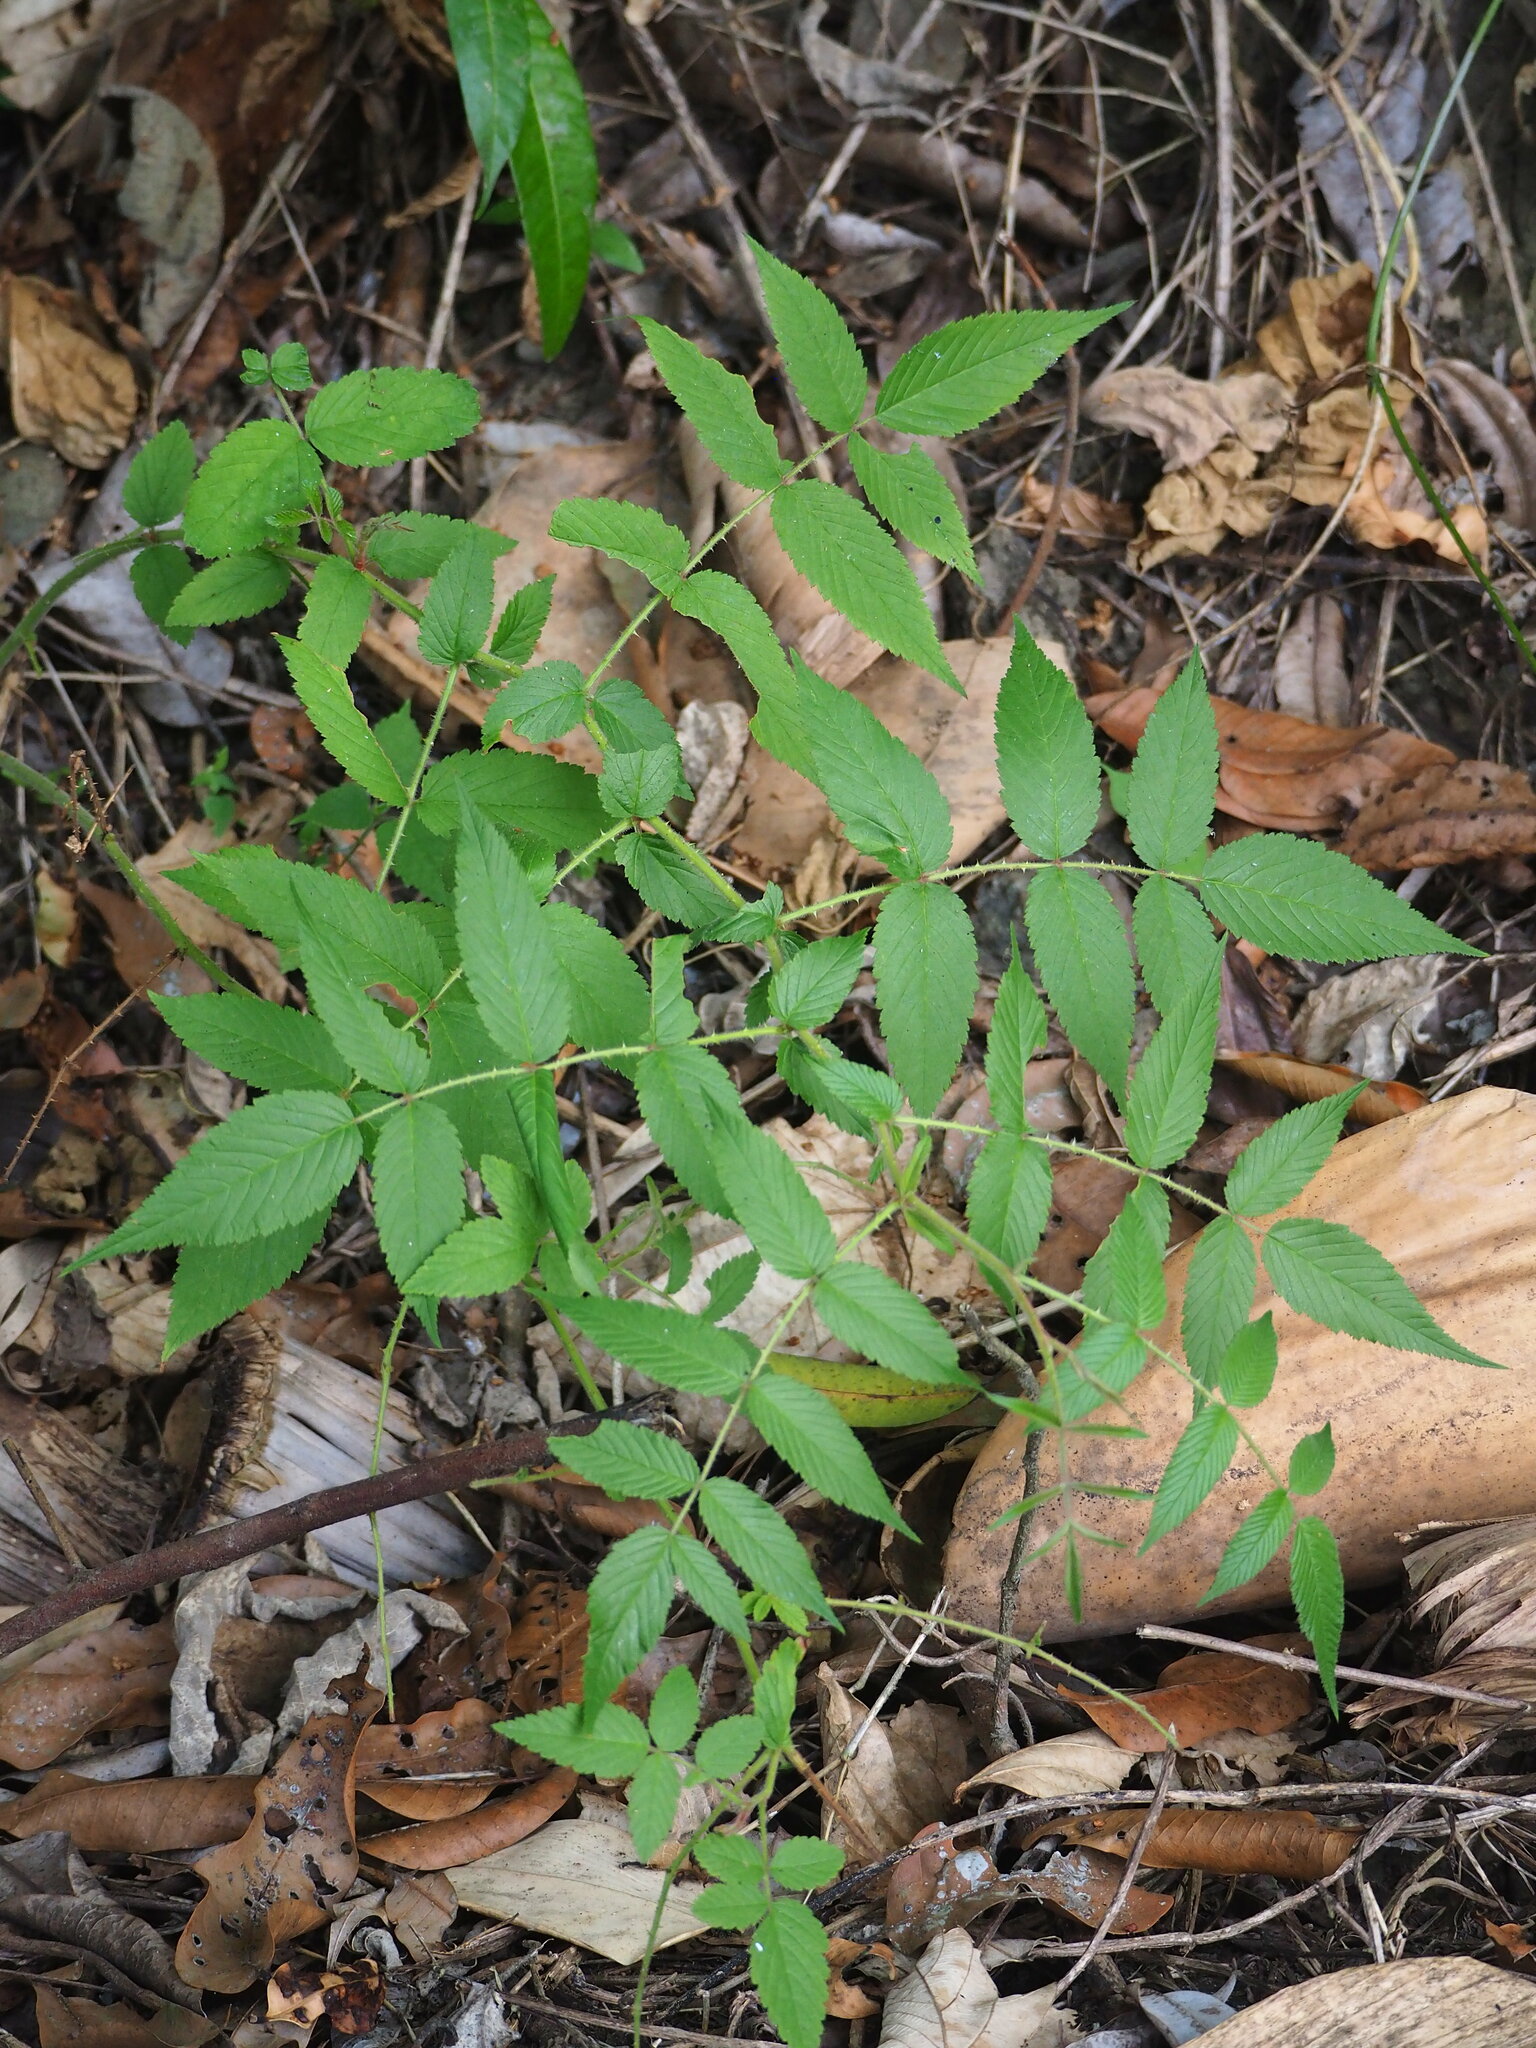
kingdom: Plantae
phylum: Tracheophyta
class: Magnoliopsida
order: Rosales
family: Rosaceae
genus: Rubus
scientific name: Rubus croceacanthus
